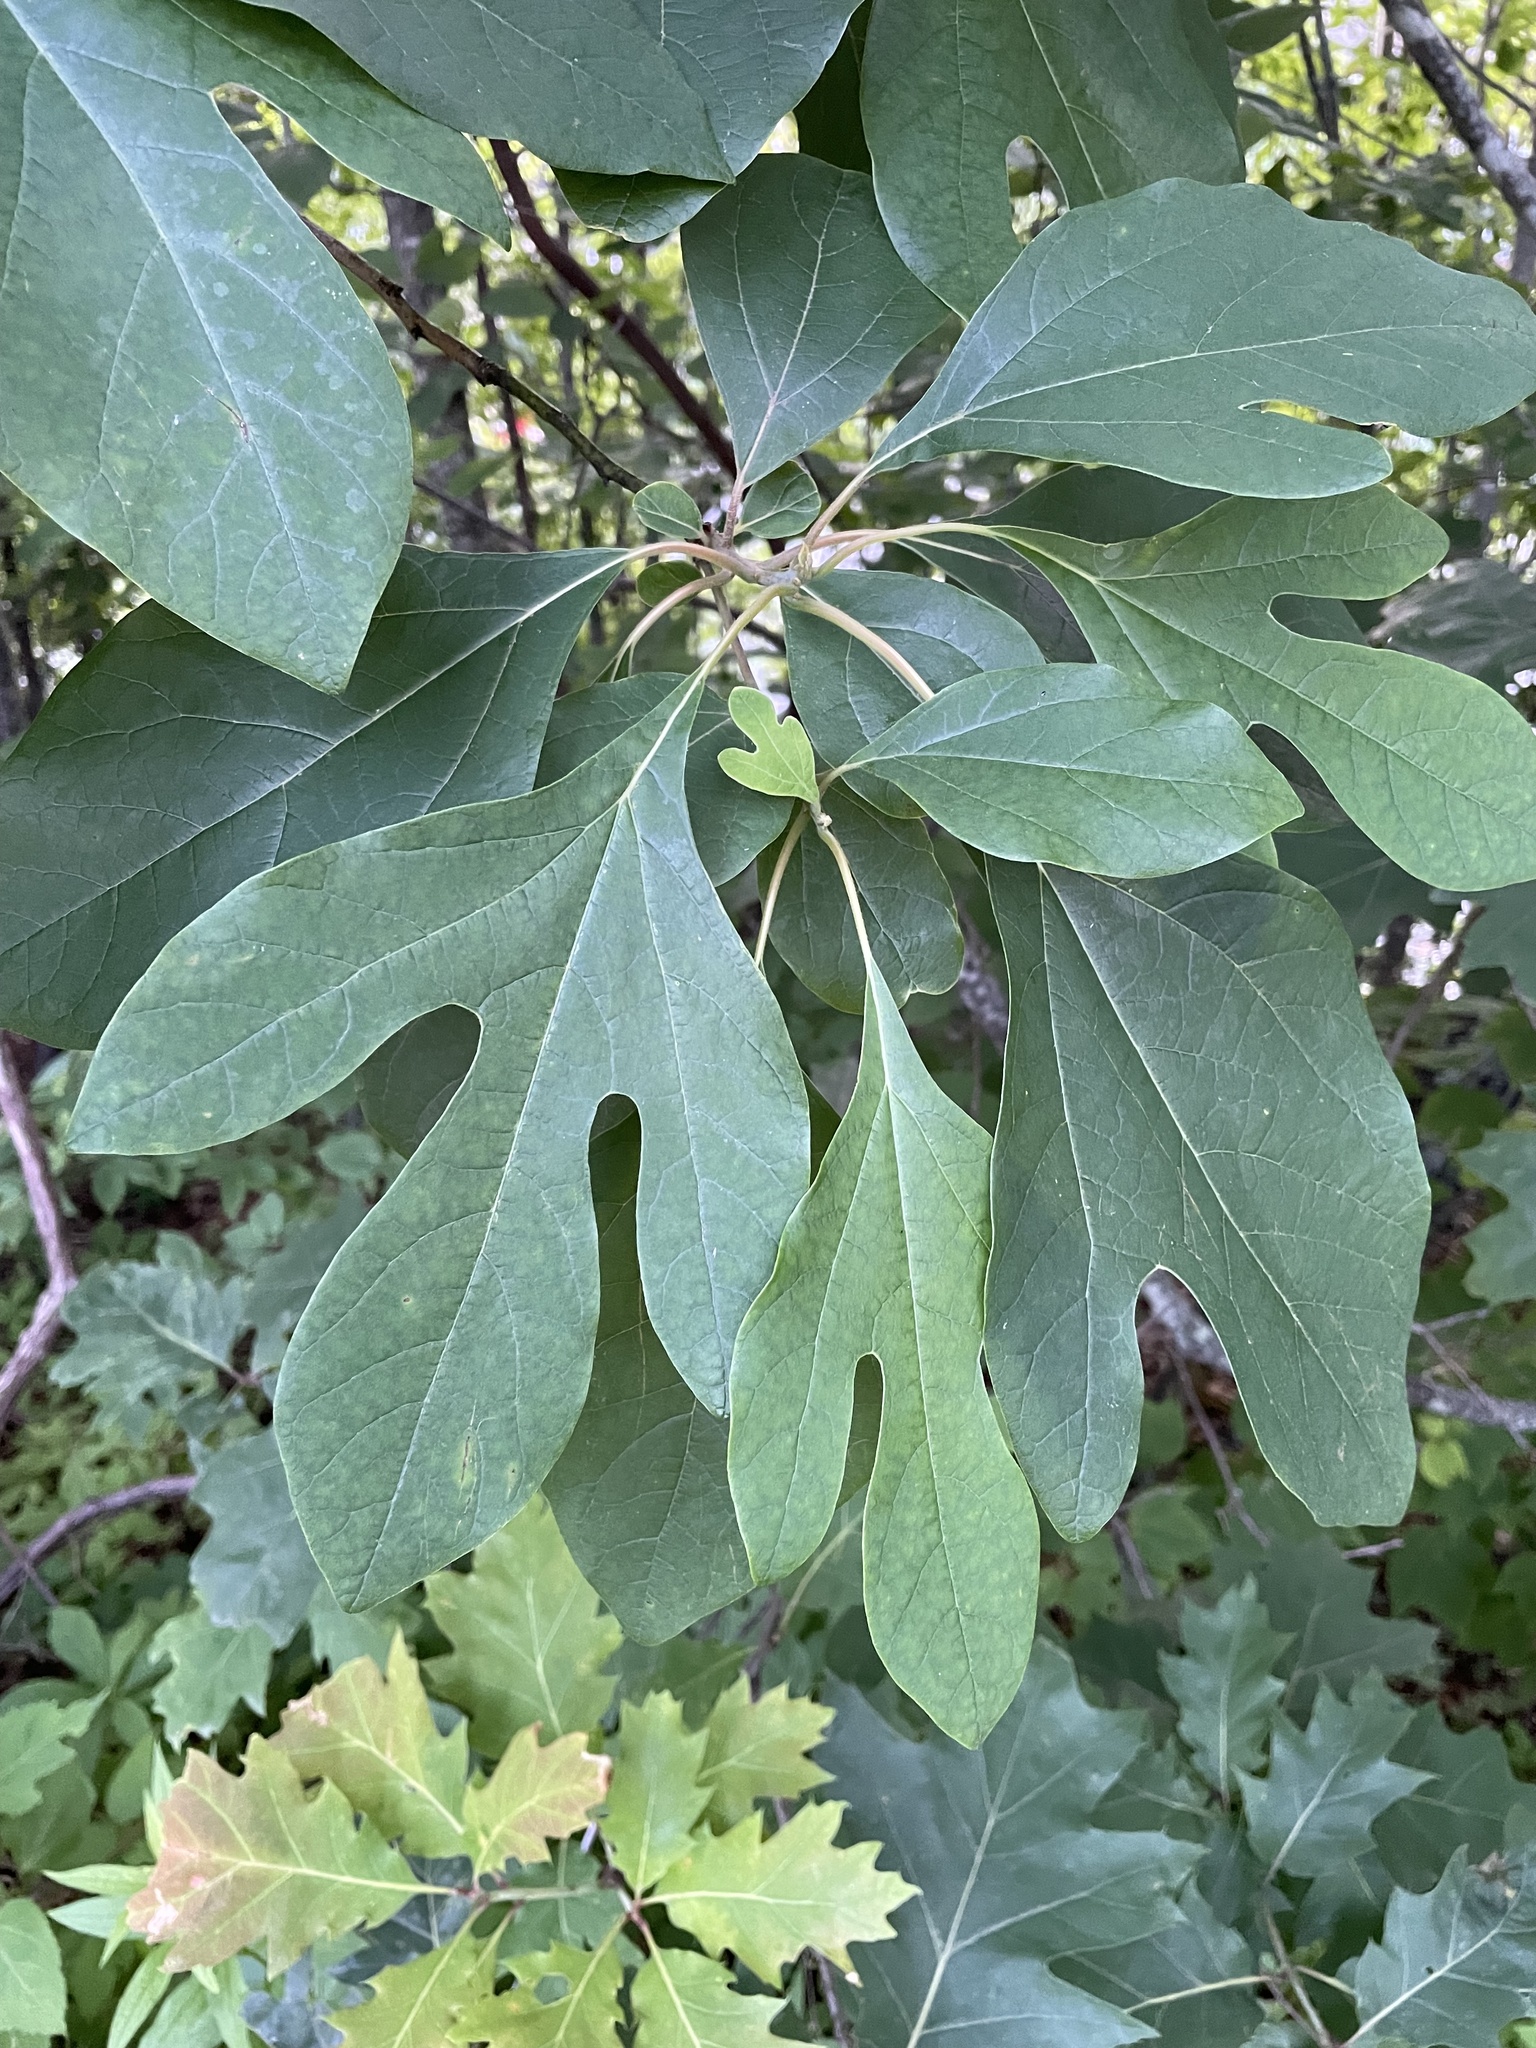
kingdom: Plantae
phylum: Tracheophyta
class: Magnoliopsida
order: Laurales
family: Lauraceae
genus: Sassafras
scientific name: Sassafras albidum
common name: Sassafras
